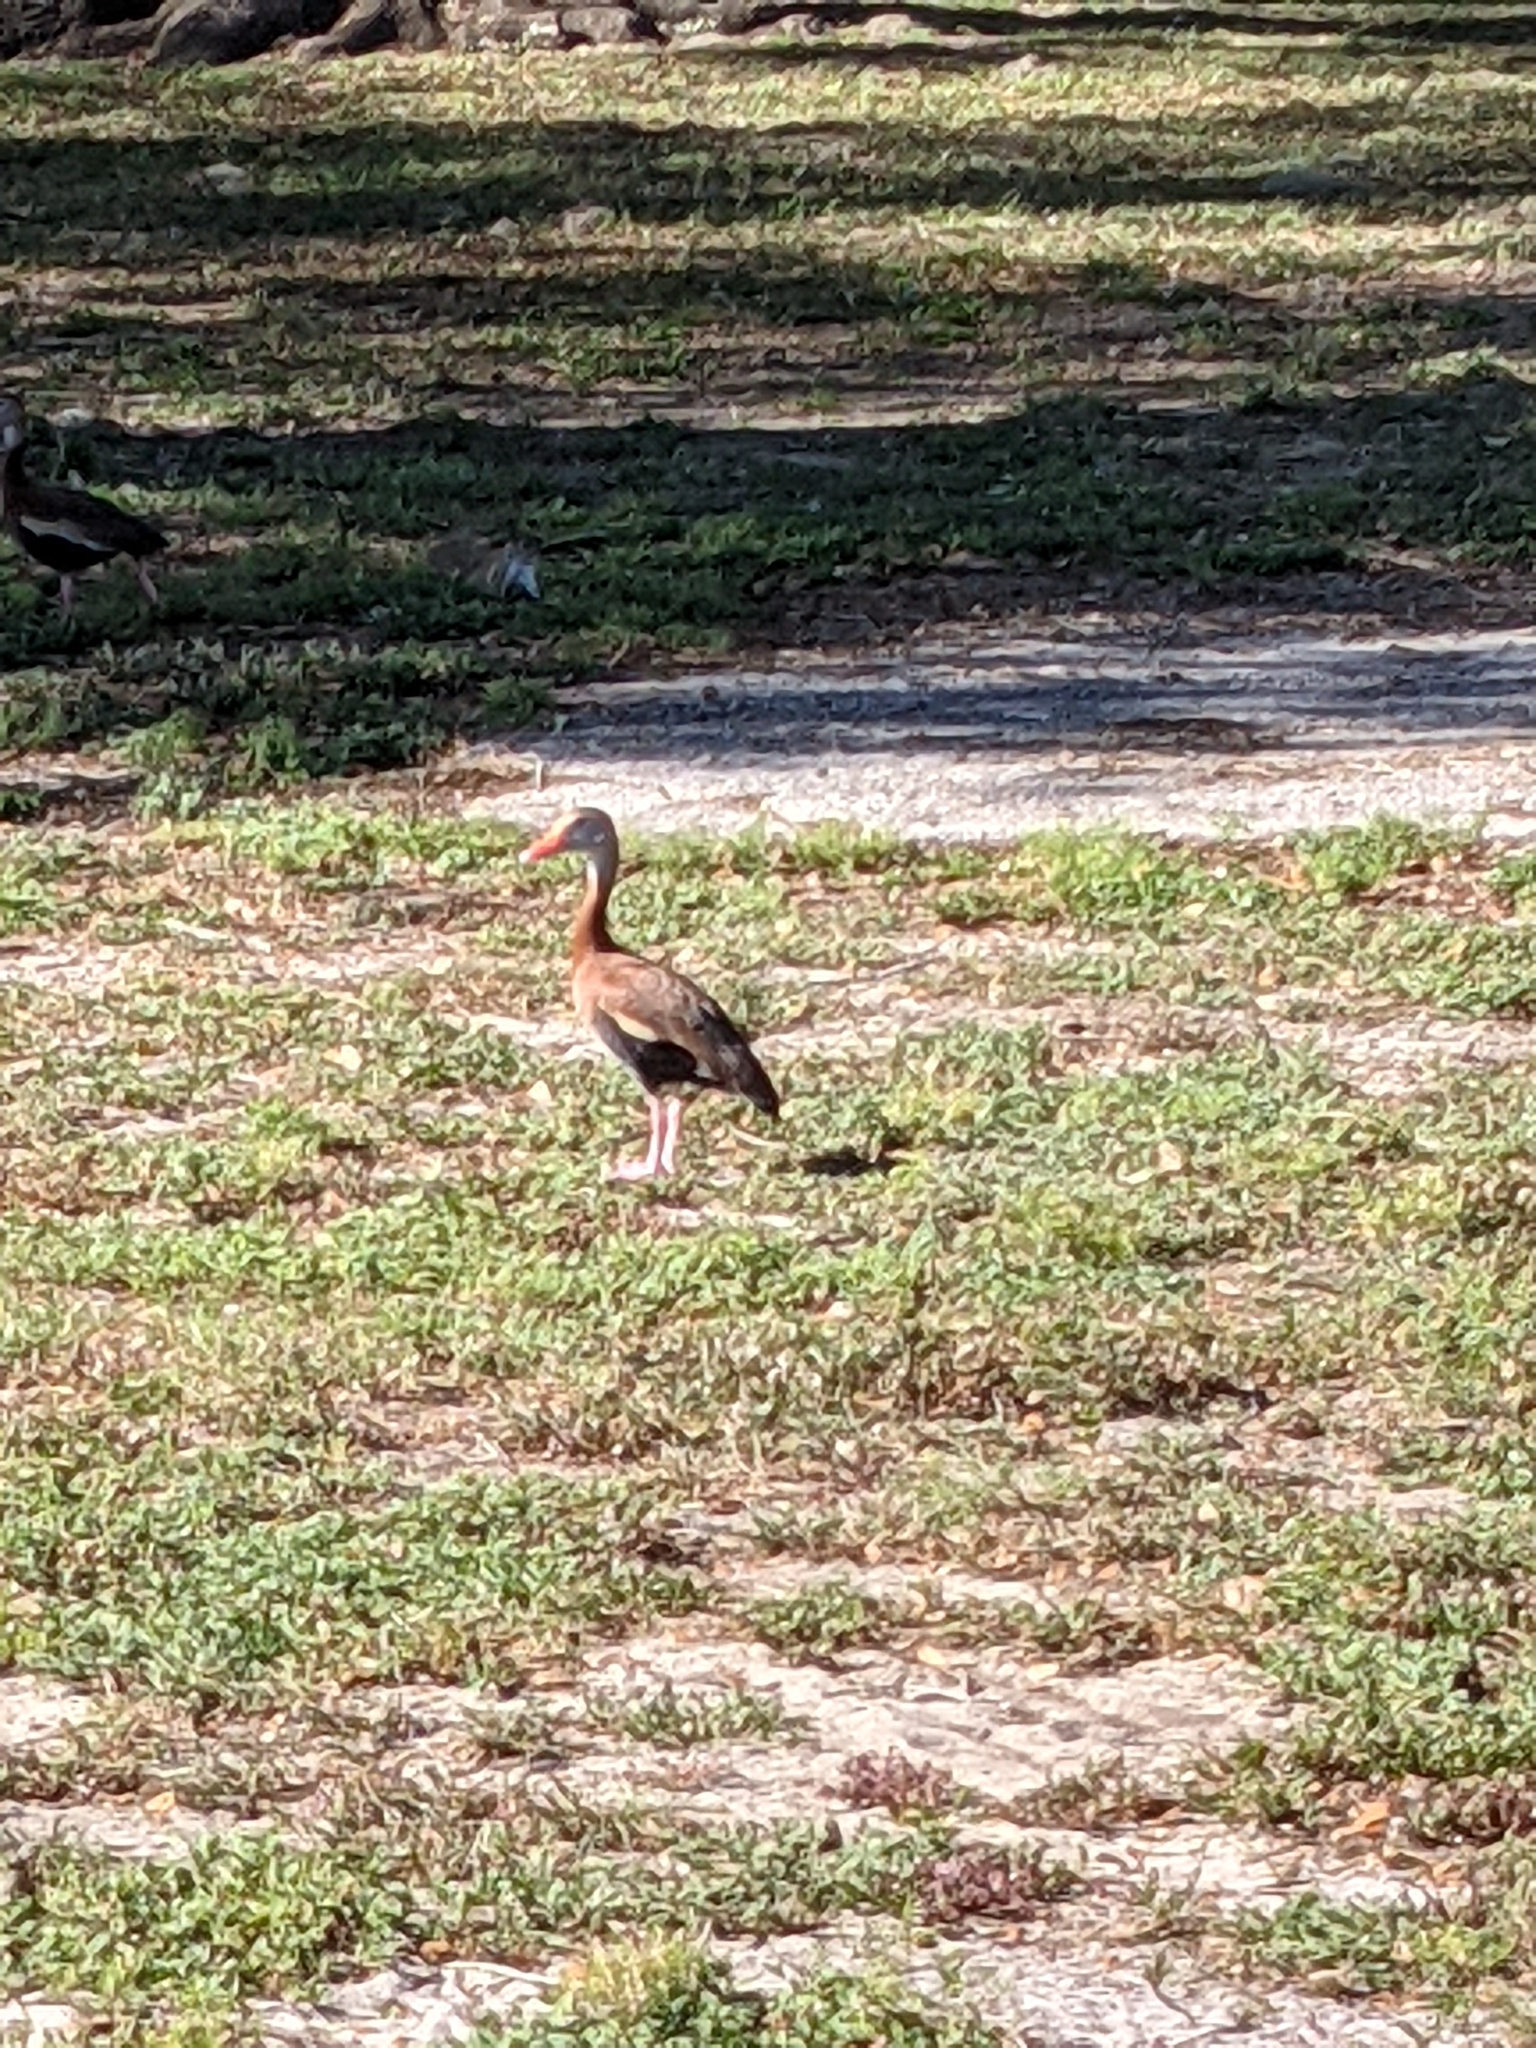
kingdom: Animalia
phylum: Chordata
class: Aves
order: Anseriformes
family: Anatidae
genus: Dendrocygna
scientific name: Dendrocygna autumnalis
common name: Black-bellied whistling duck
